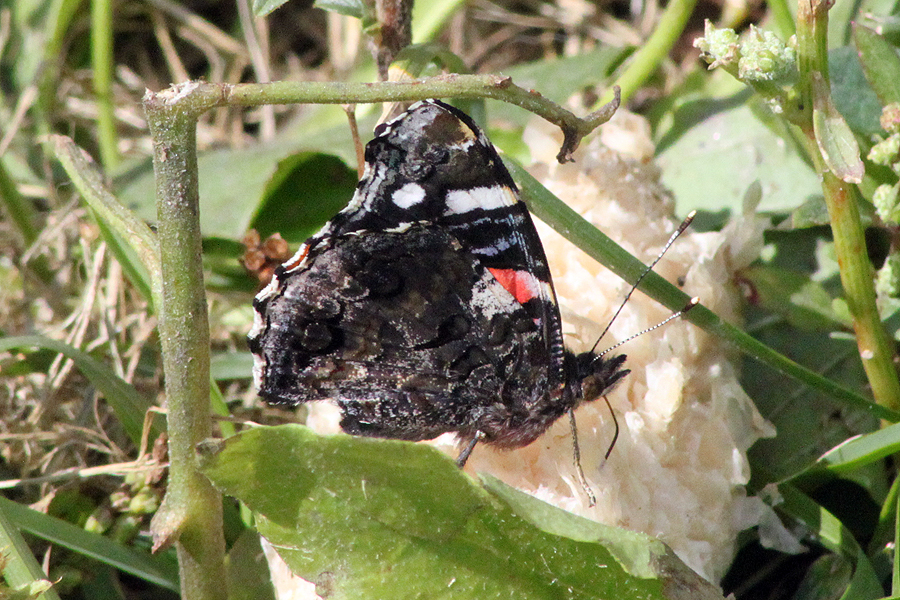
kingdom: Animalia
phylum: Arthropoda
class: Insecta
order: Lepidoptera
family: Nymphalidae
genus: Vanessa
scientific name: Vanessa atalanta
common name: Red admiral
